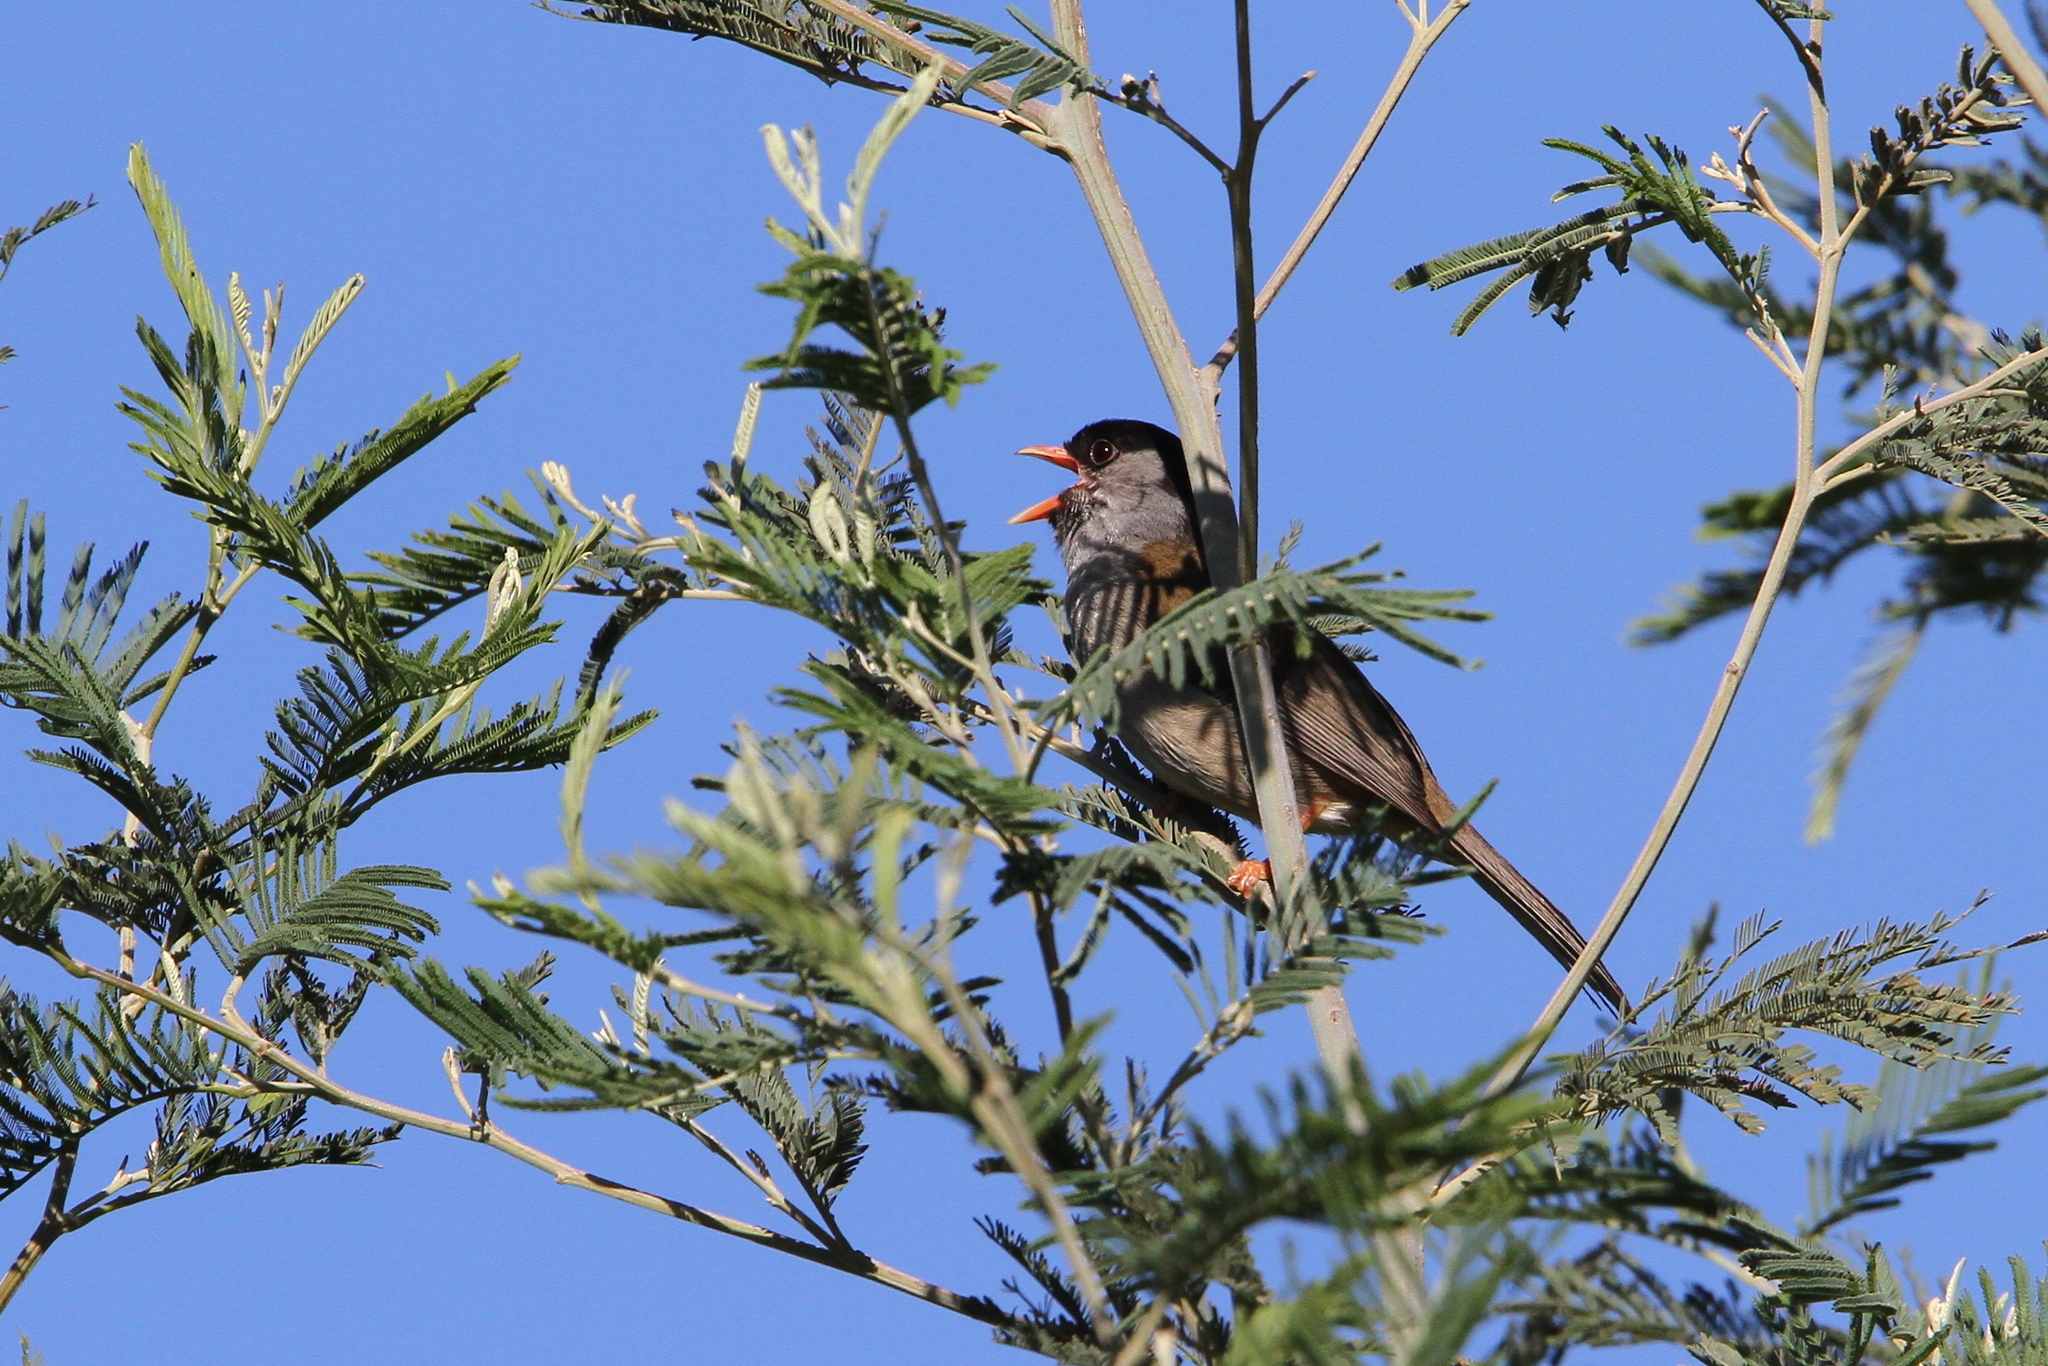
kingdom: Animalia
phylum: Chordata
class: Aves
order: Passeriformes
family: Sylviidae
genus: Lioptilus
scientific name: Lioptilus nigricapillus
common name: Bush blackcap
